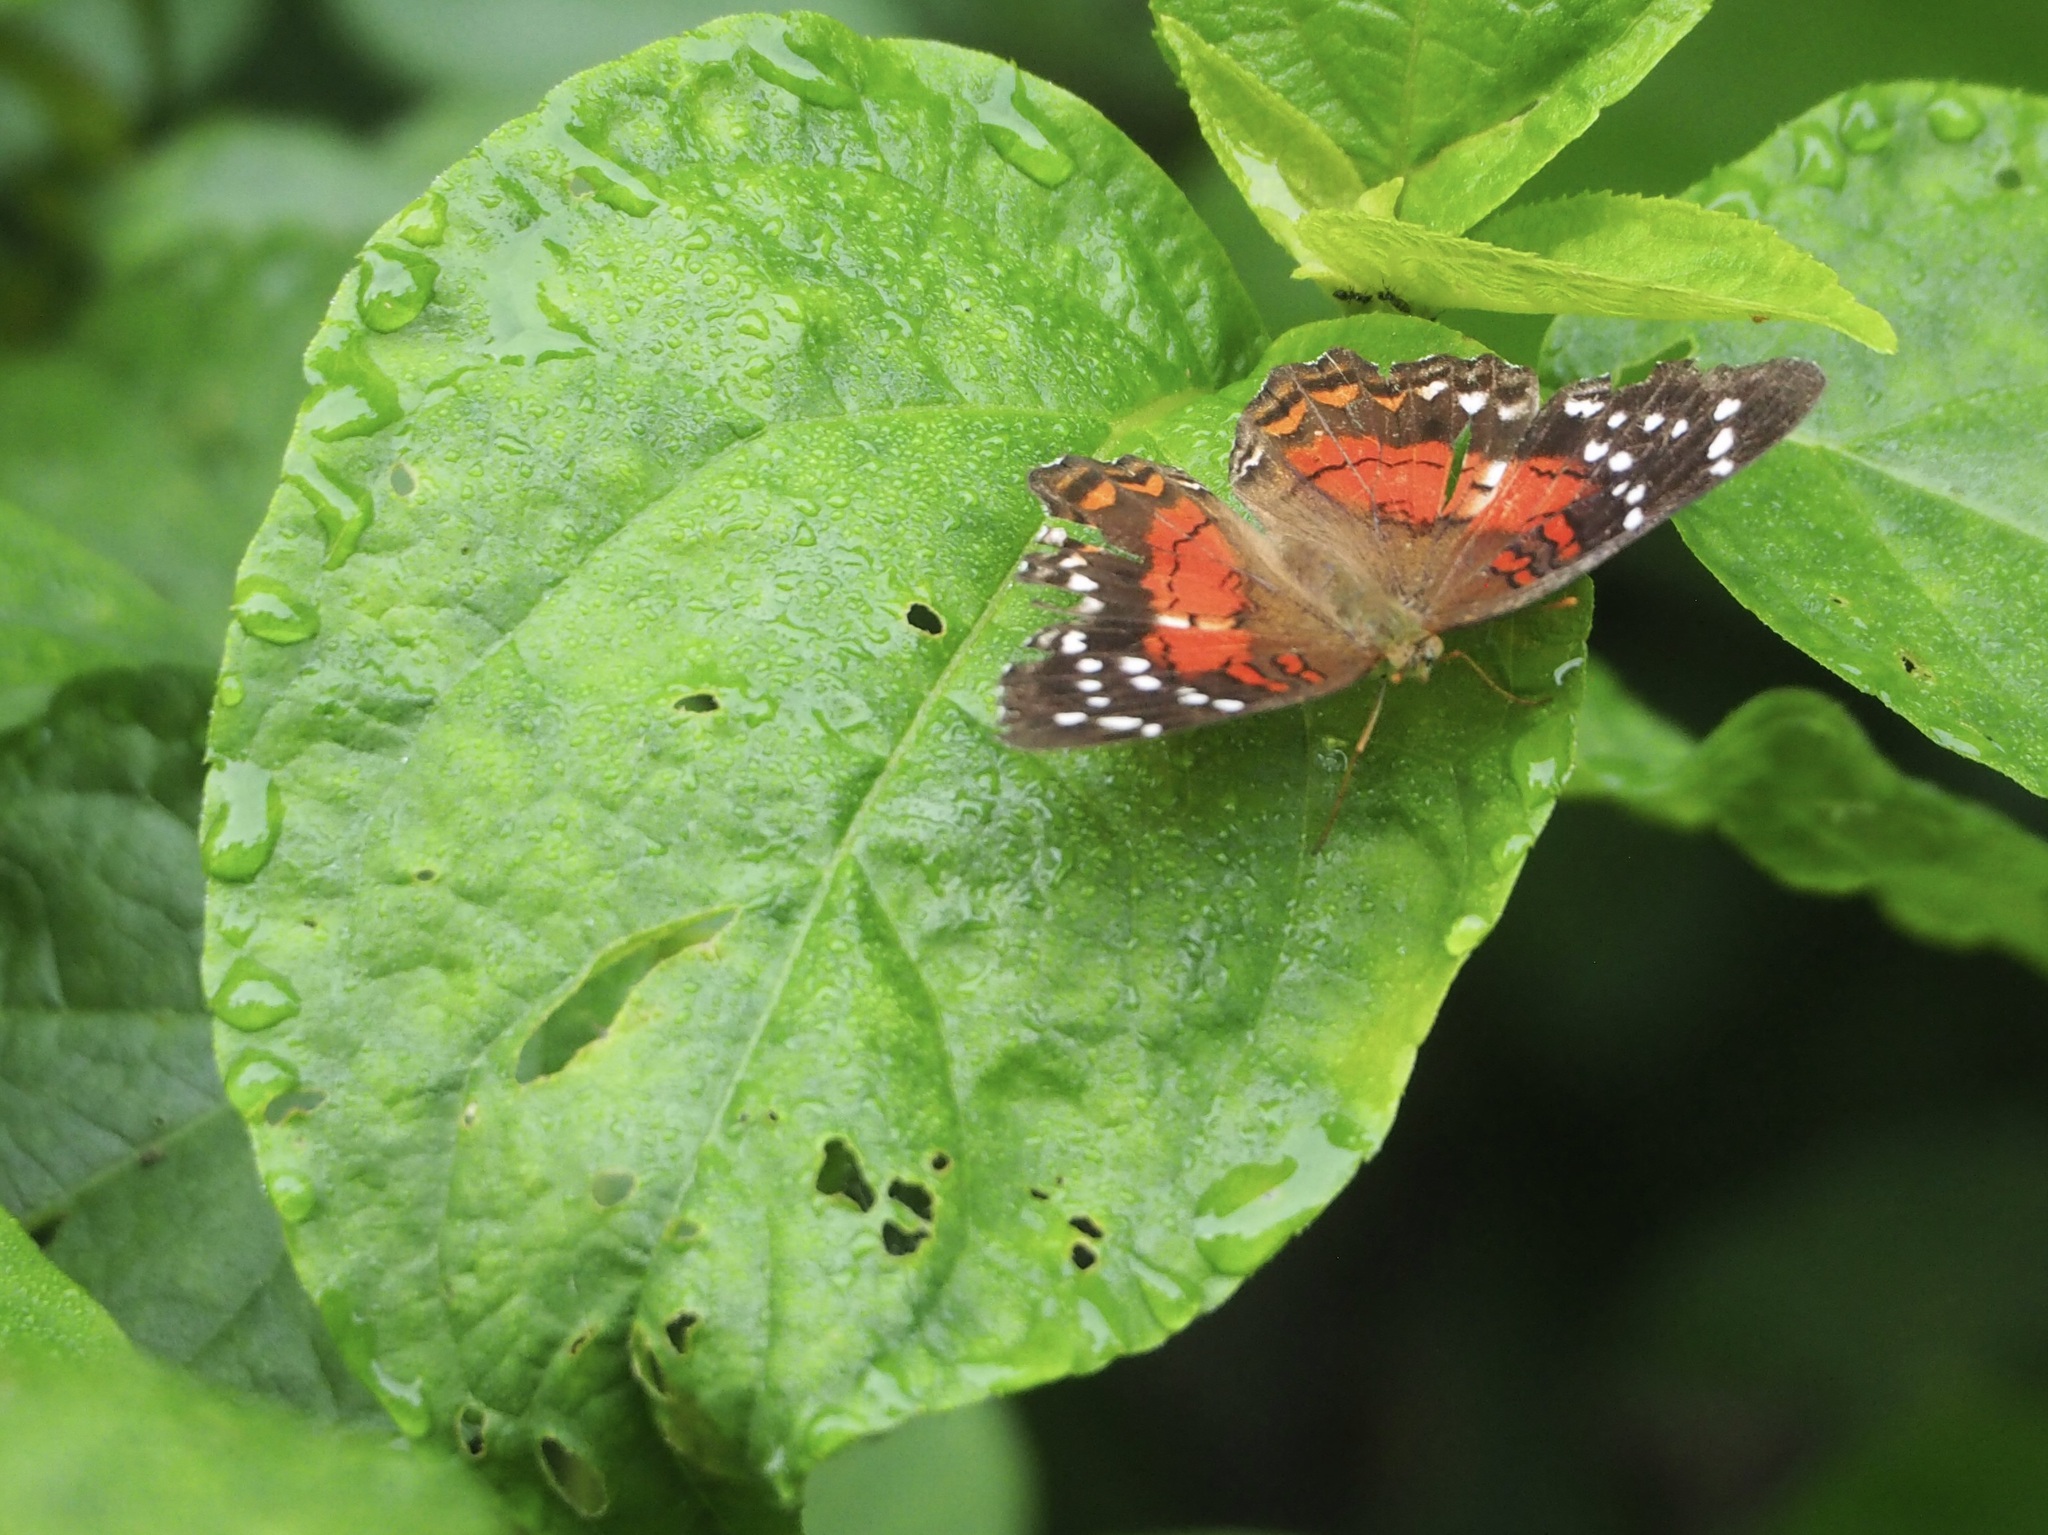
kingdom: Animalia
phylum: Arthropoda
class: Insecta
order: Lepidoptera
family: Nymphalidae
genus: Anartia
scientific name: Anartia amathea
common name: Red peacock
